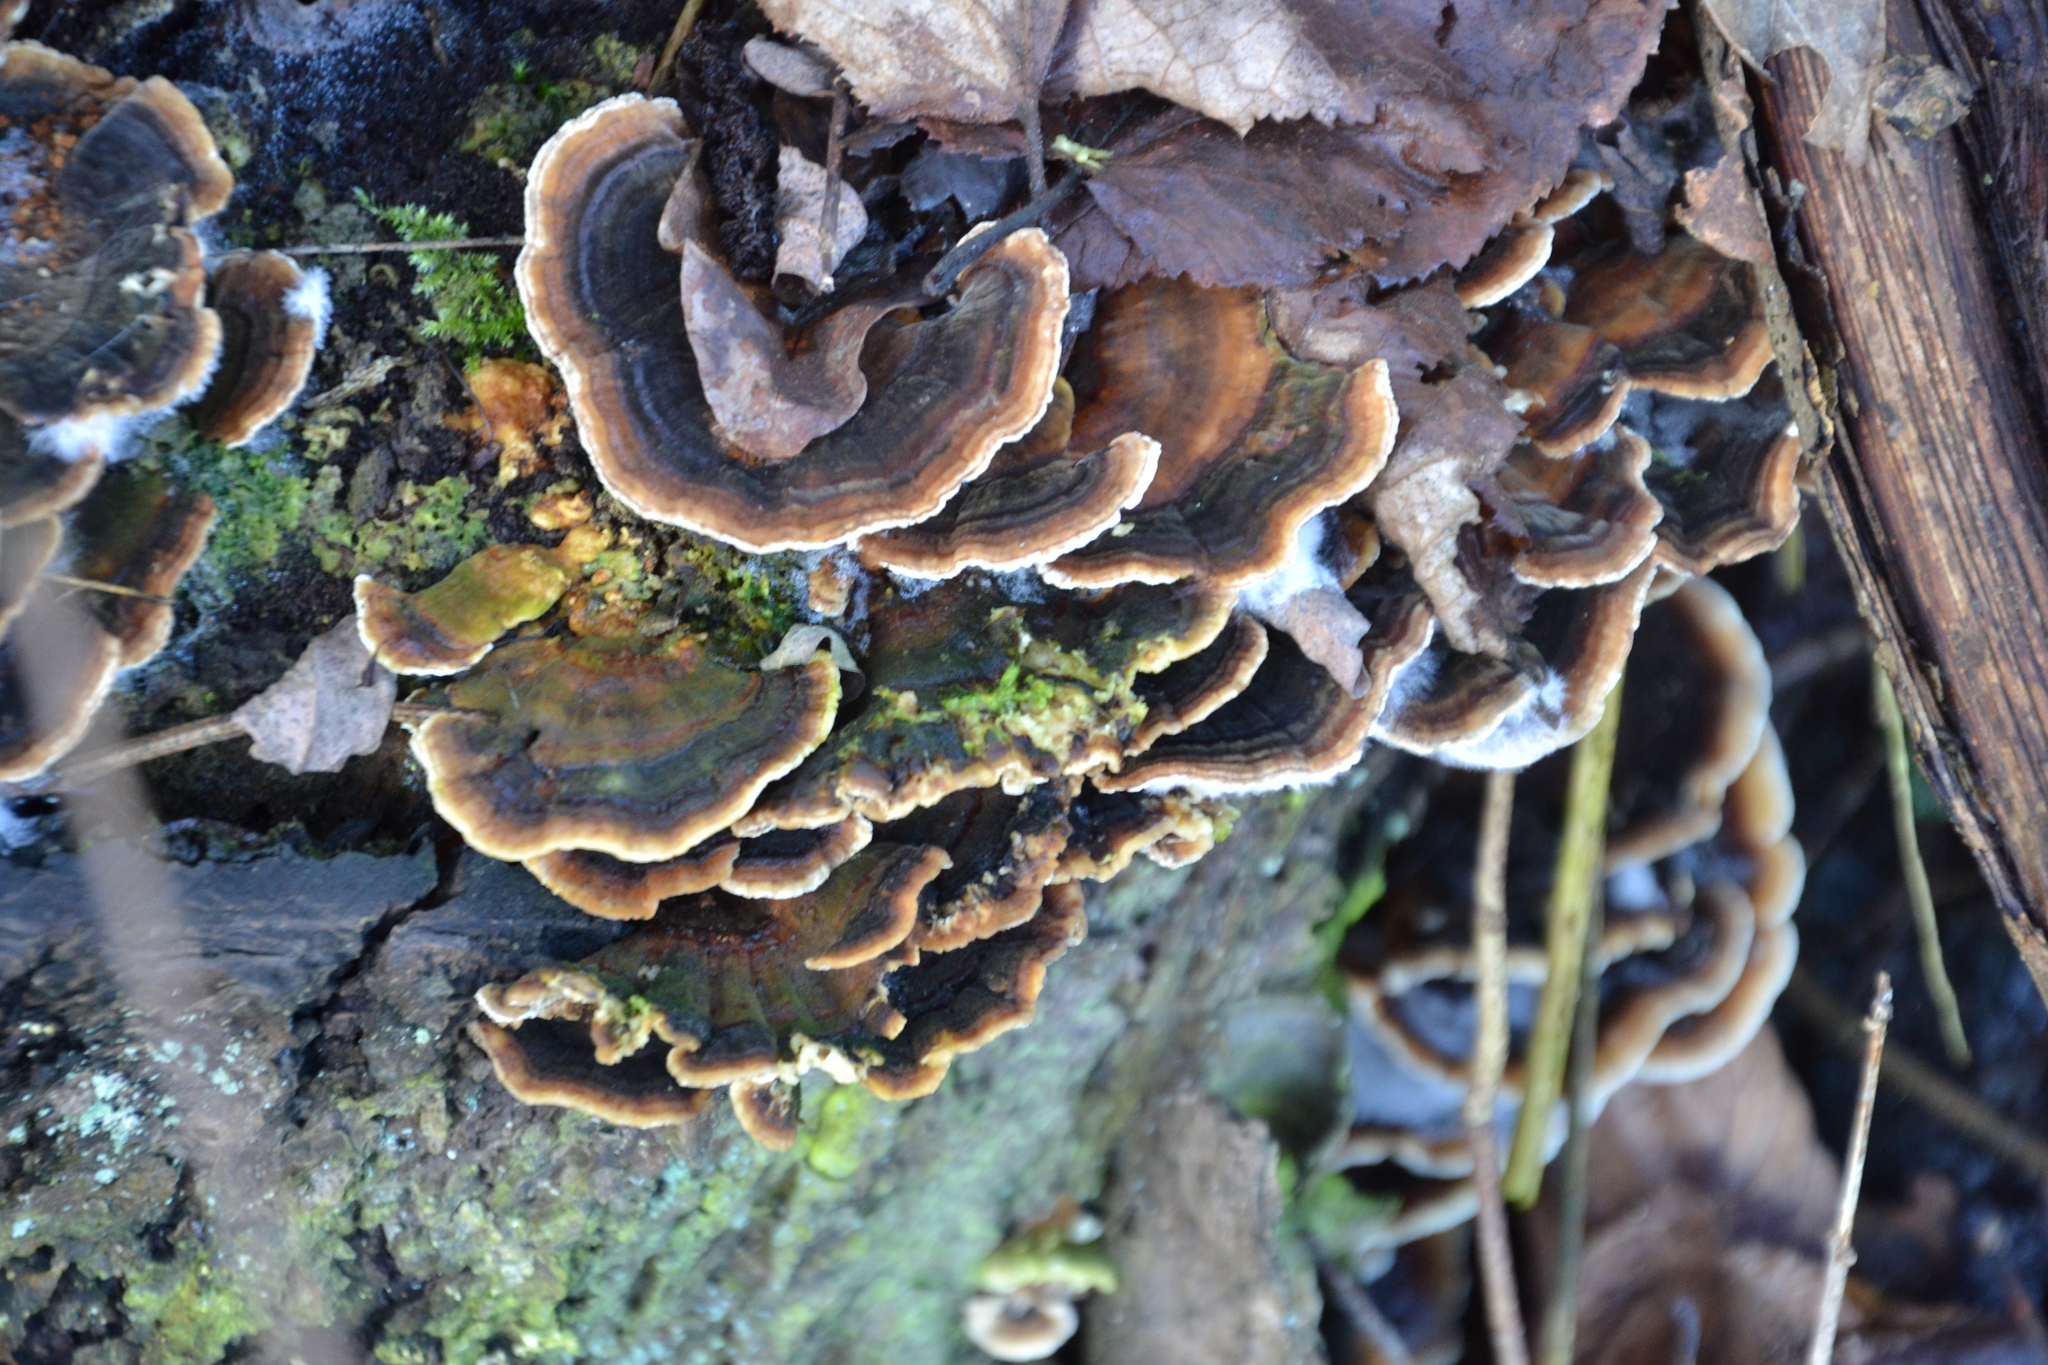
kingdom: Fungi
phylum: Basidiomycota
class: Agaricomycetes
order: Polyporales
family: Polyporaceae
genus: Trametes
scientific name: Trametes versicolor
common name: Turkeytail
